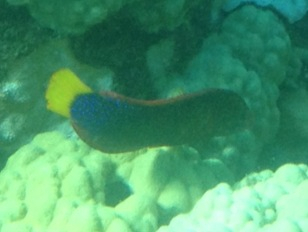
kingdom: Animalia
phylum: Chordata
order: Perciformes
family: Labridae
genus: Coris
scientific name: Coris gaimard
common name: Yellowtail coris
